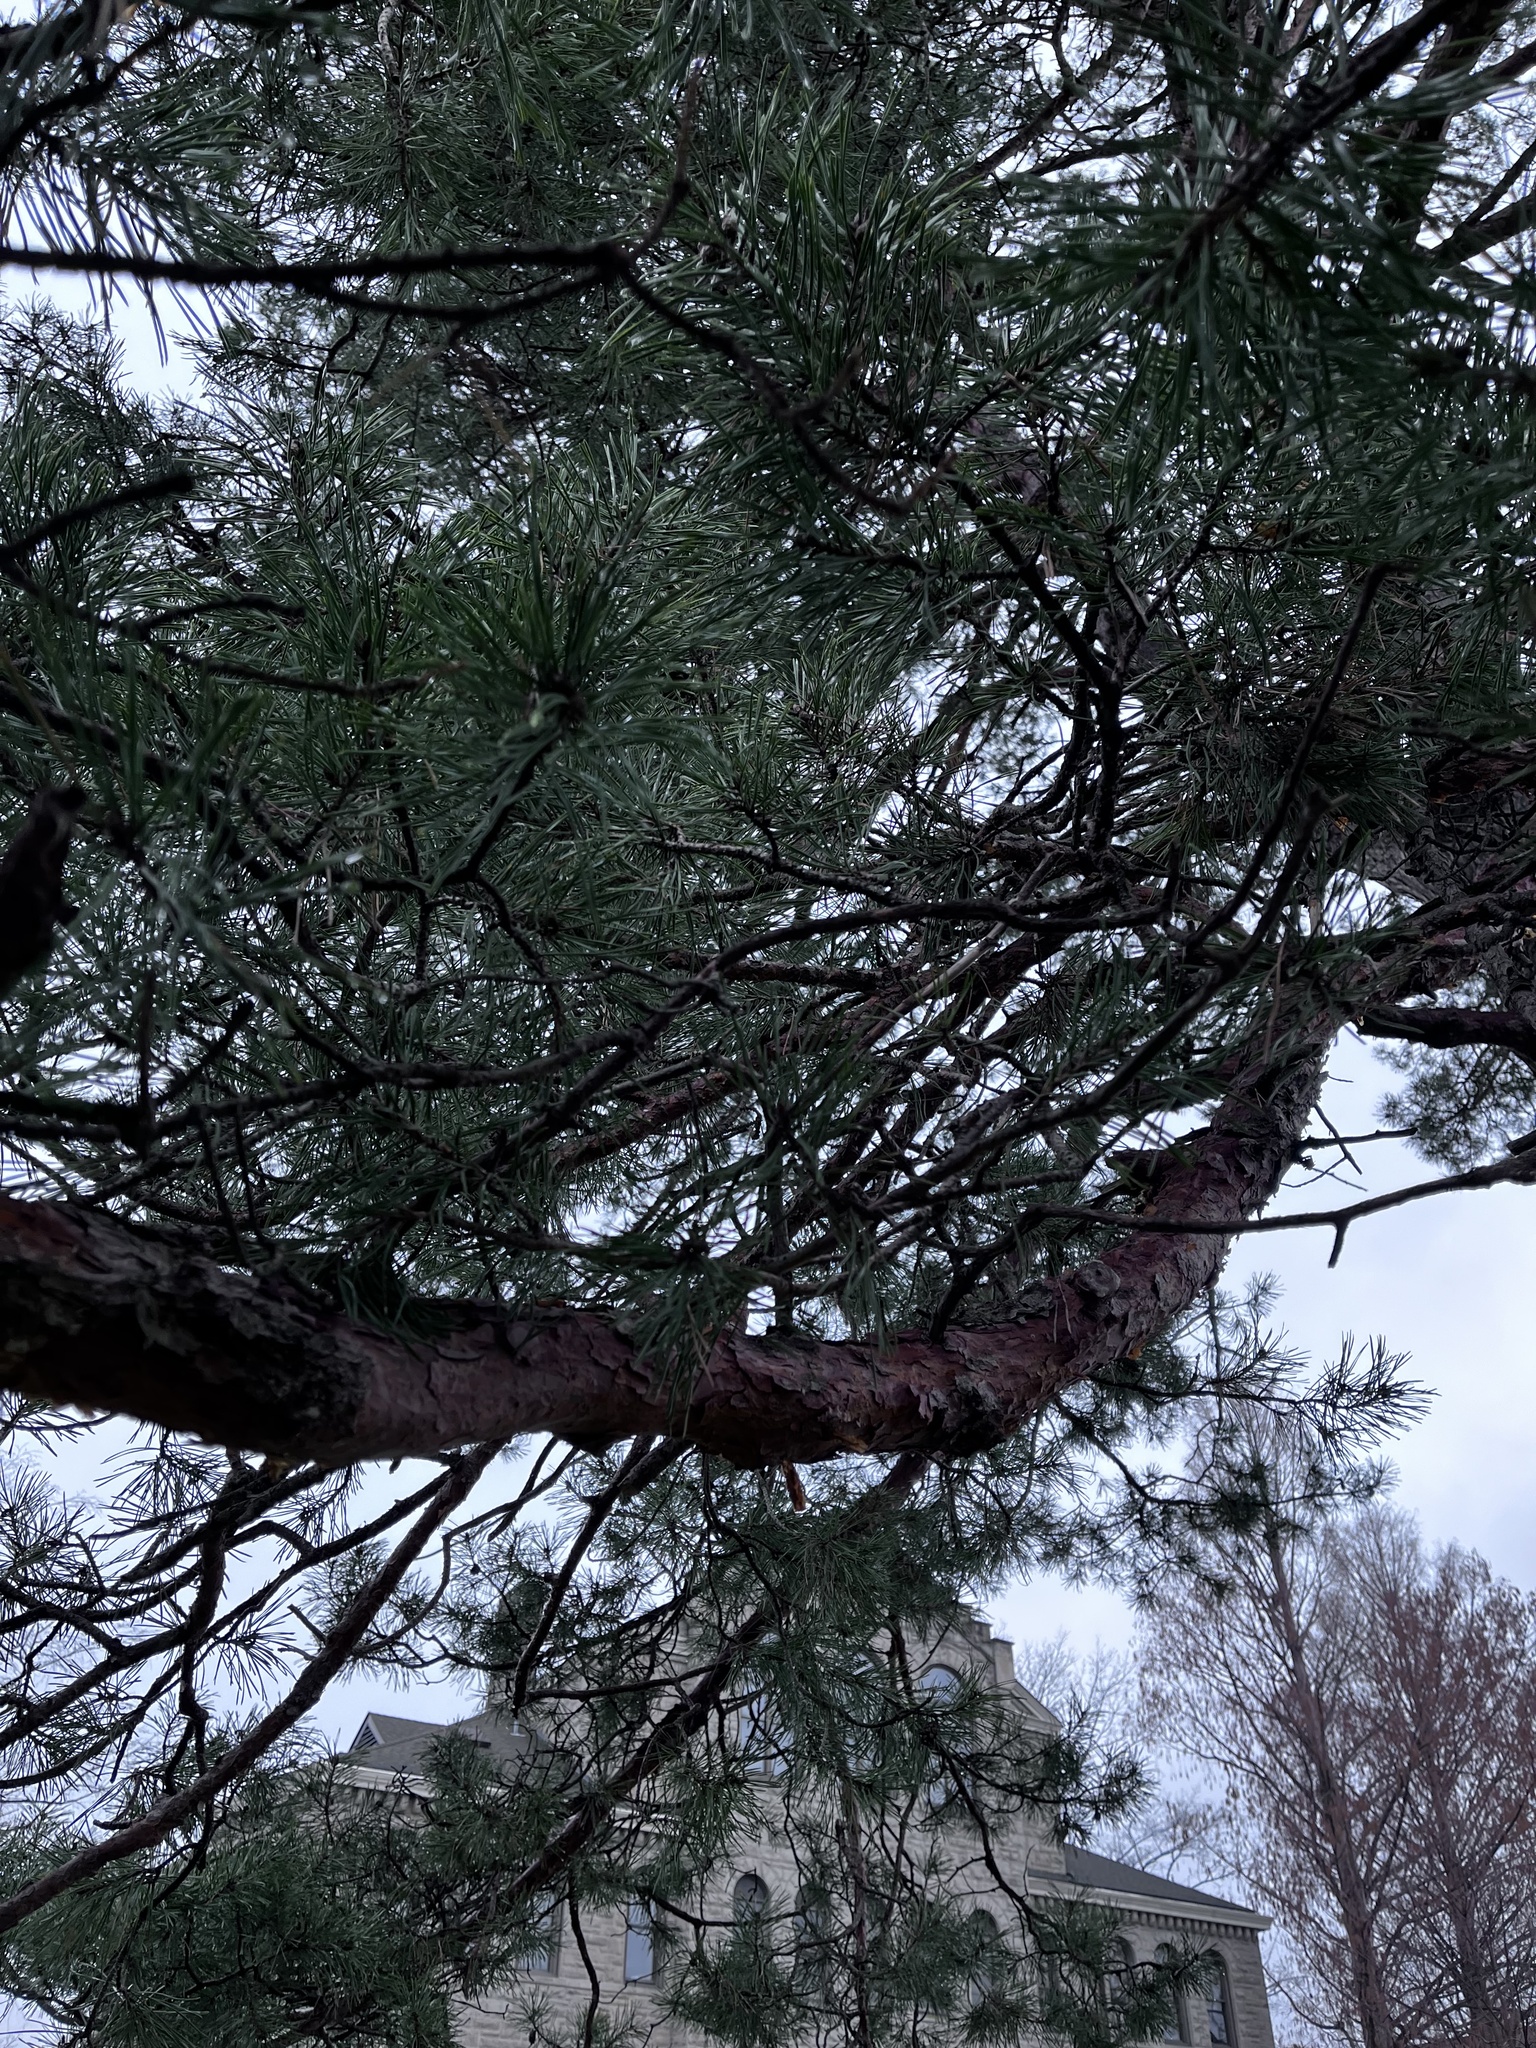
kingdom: Plantae
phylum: Tracheophyta
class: Pinopsida
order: Pinales
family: Pinaceae
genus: Pinus
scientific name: Pinus sylvestris
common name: Scots pine
